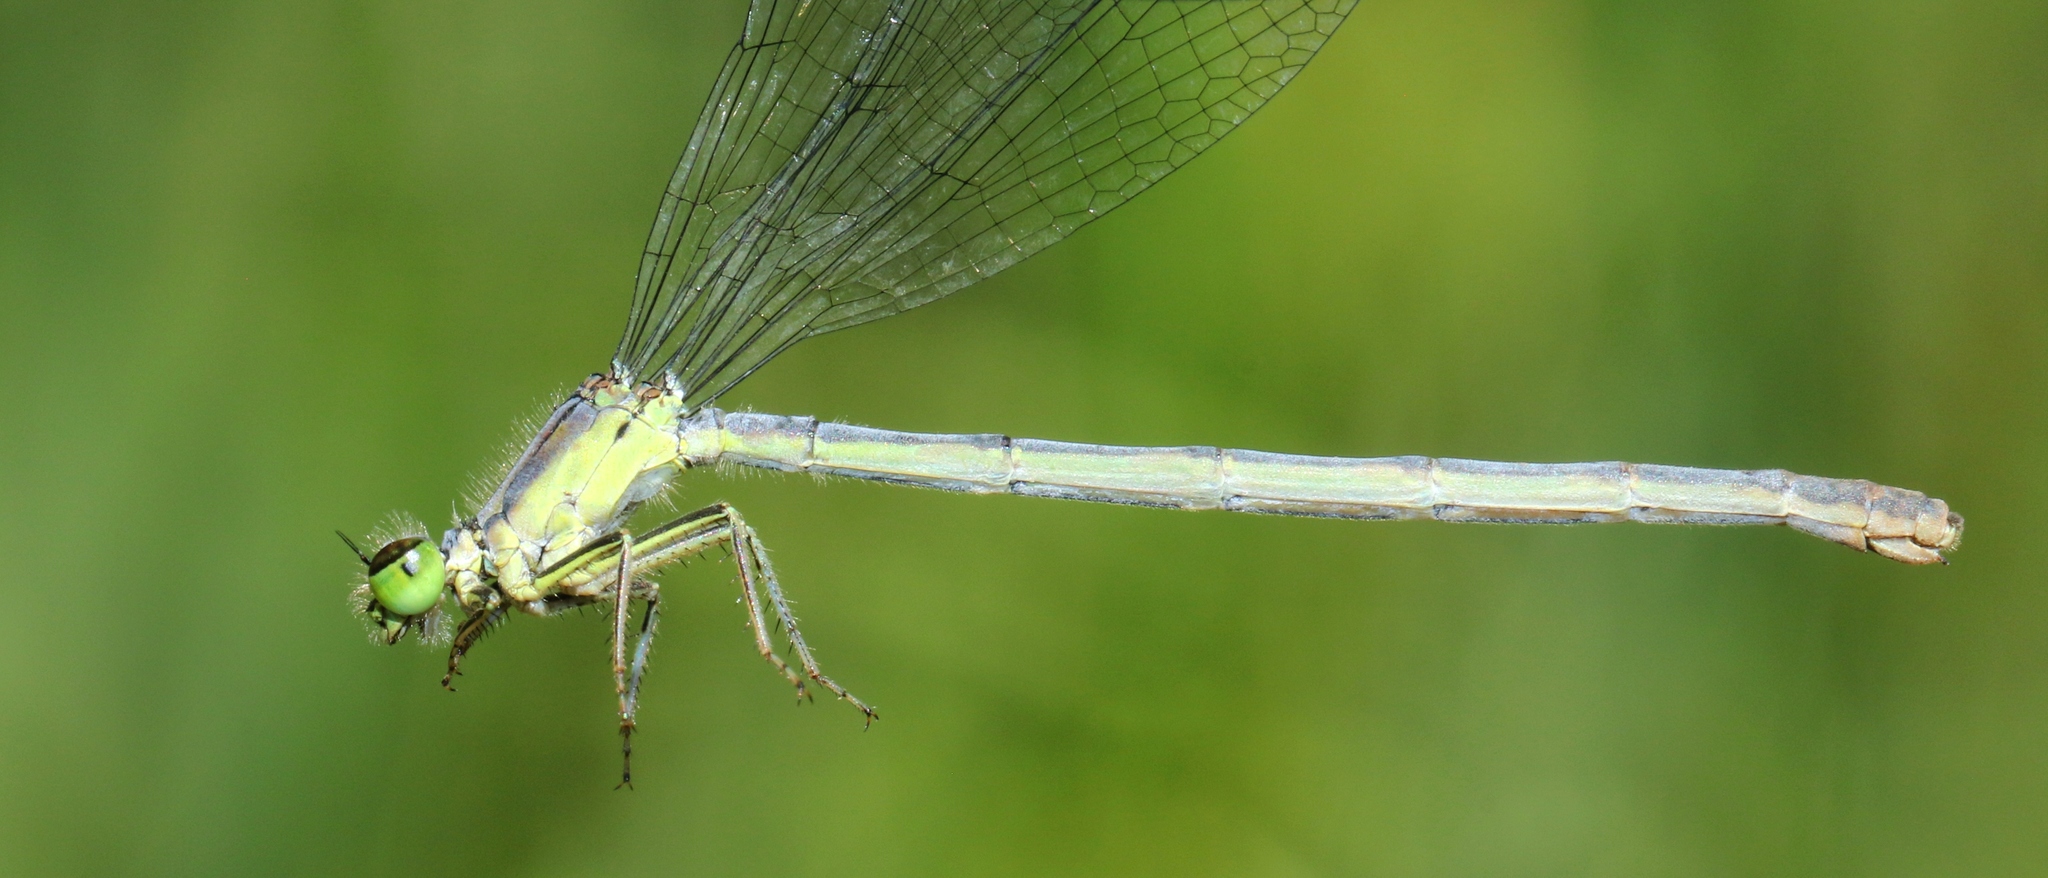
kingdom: Animalia
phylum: Arthropoda
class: Insecta
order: Odonata
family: Coenagrionidae
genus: Ischnura
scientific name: Ischnura verticalis
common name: Eastern forktail
